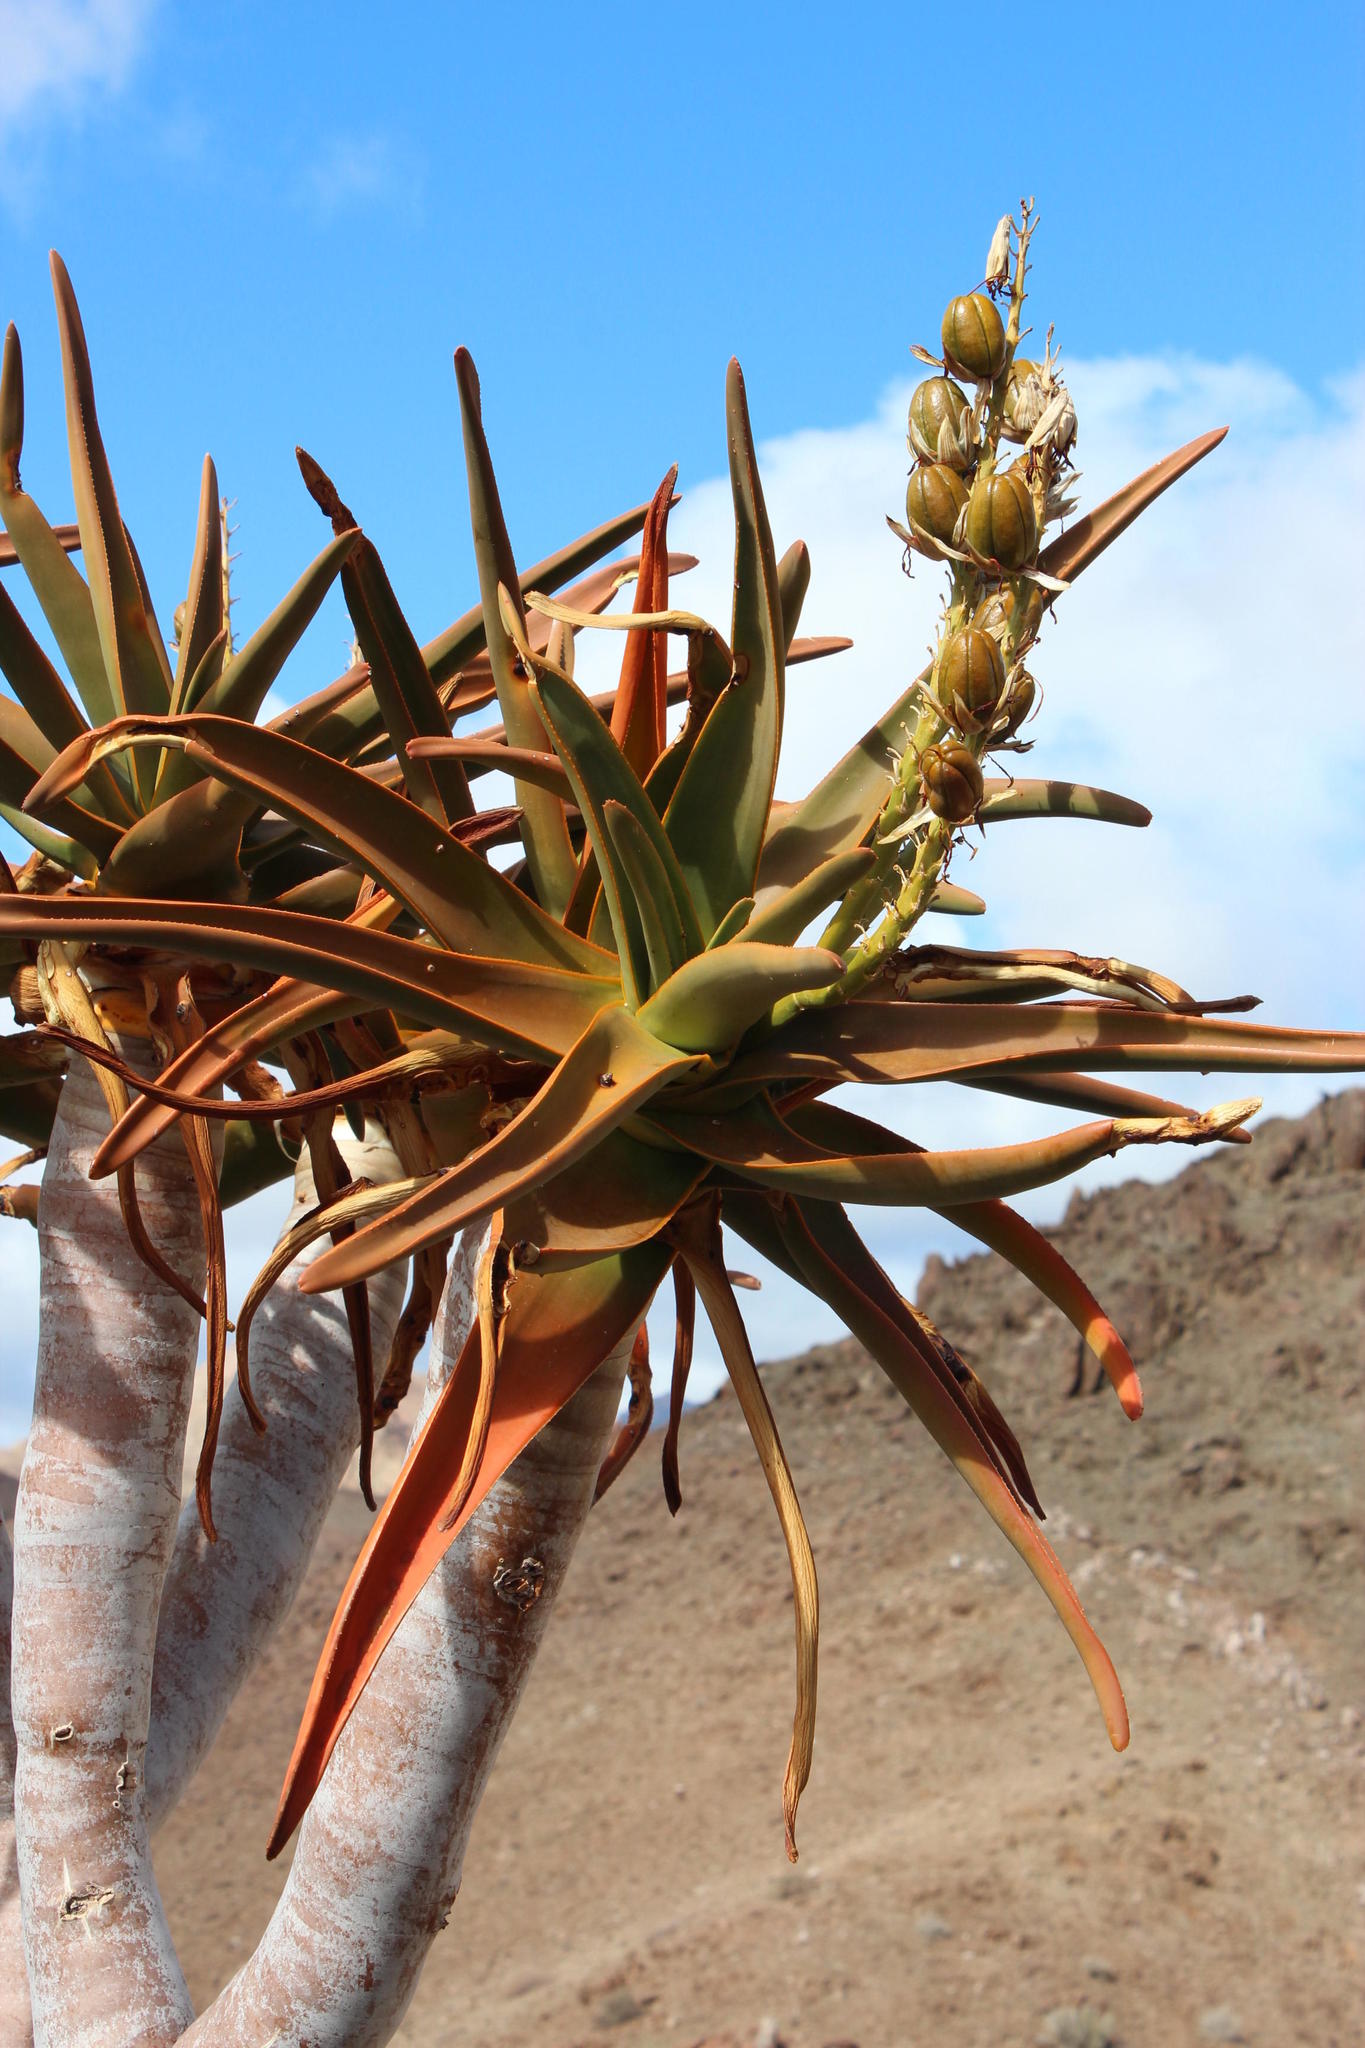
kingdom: Plantae
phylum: Tracheophyta
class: Liliopsida
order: Asparagales
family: Asphodelaceae
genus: Aloidendron
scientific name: Aloidendron dichotomum
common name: Quiver tree
